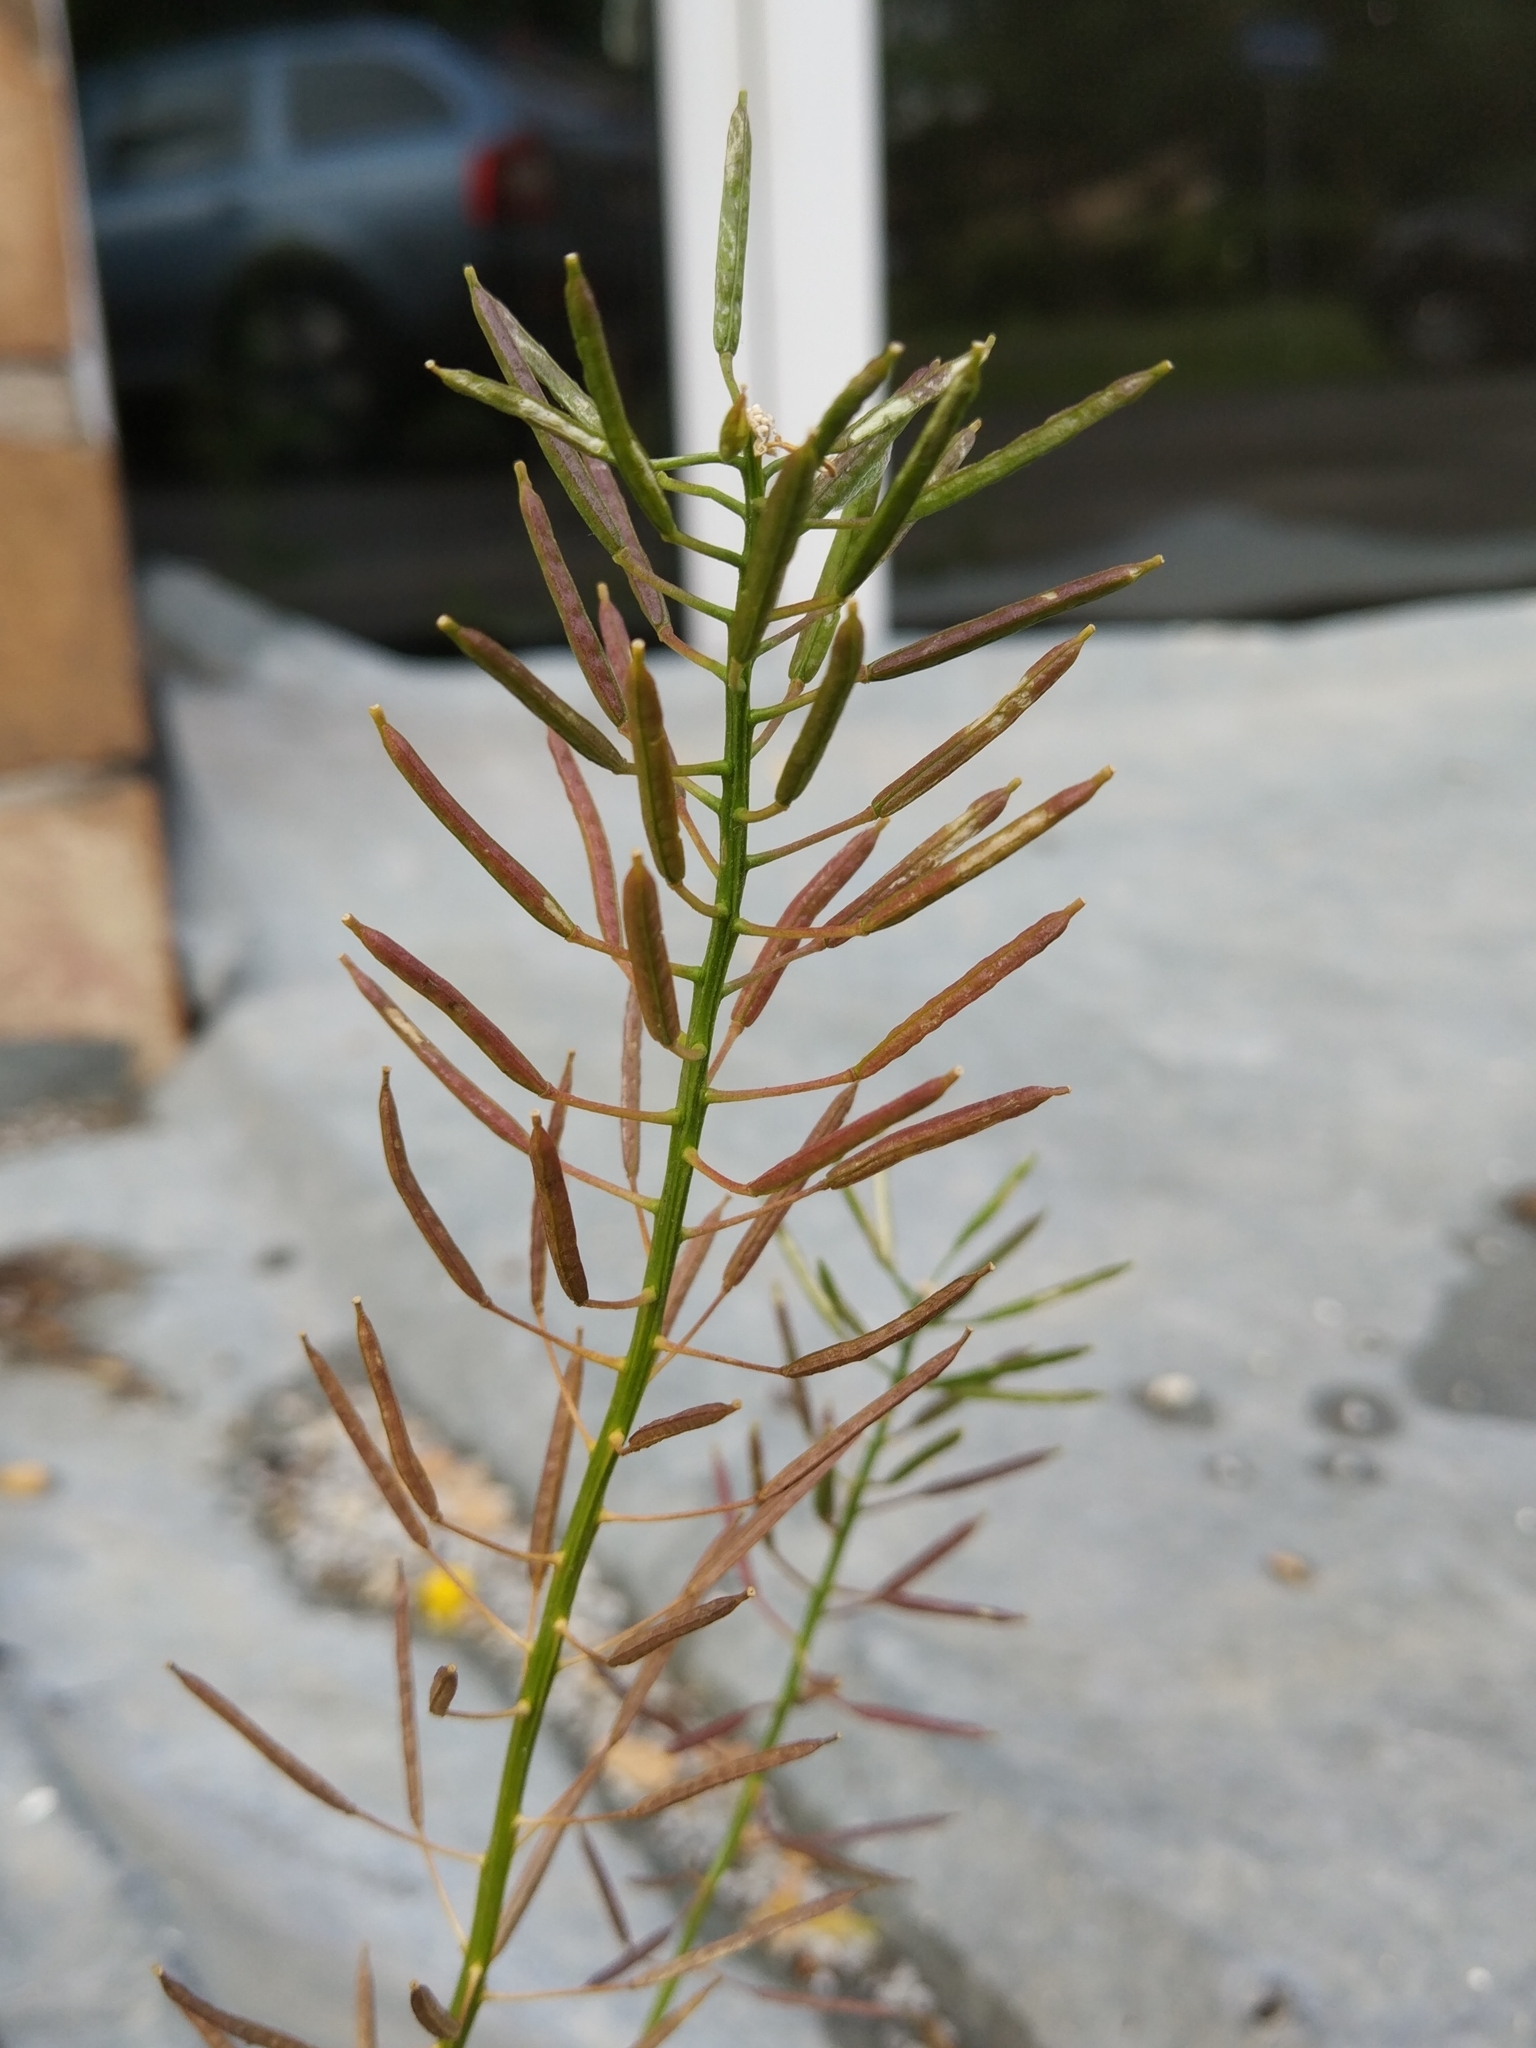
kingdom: Plantae
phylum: Tracheophyta
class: Magnoliopsida
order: Brassicales
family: Brassicaceae
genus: Erysimum
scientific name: Erysimum cheiranthoides
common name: Treacle mustard
